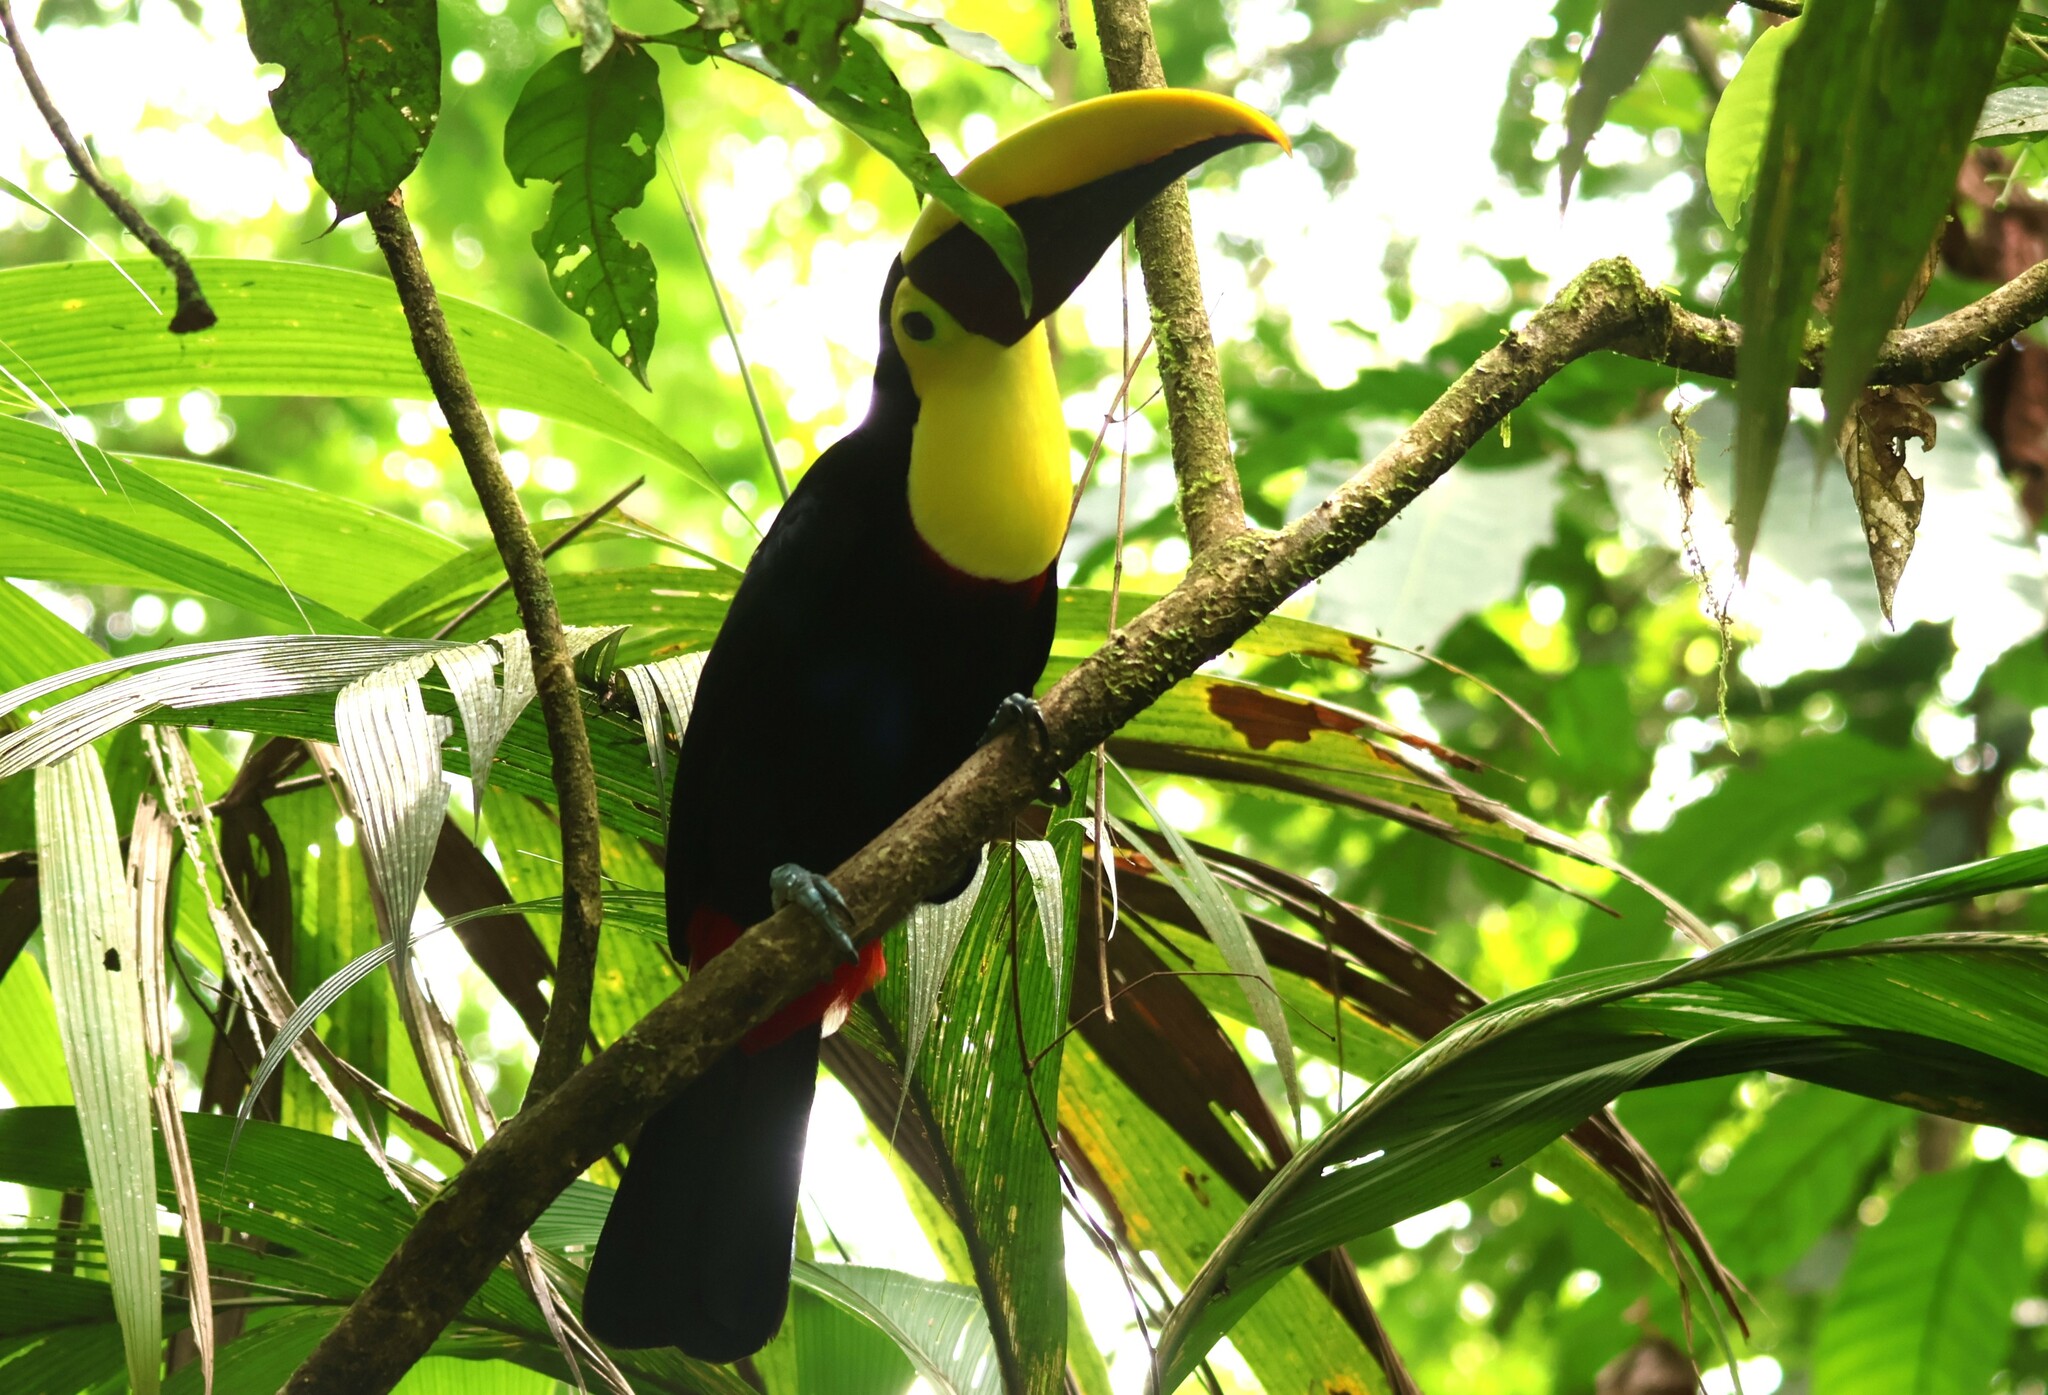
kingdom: Animalia
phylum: Chordata
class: Aves
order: Piciformes
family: Ramphastidae
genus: Ramphastos
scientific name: Ramphastos ambiguus
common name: Yellow-throated toucan
